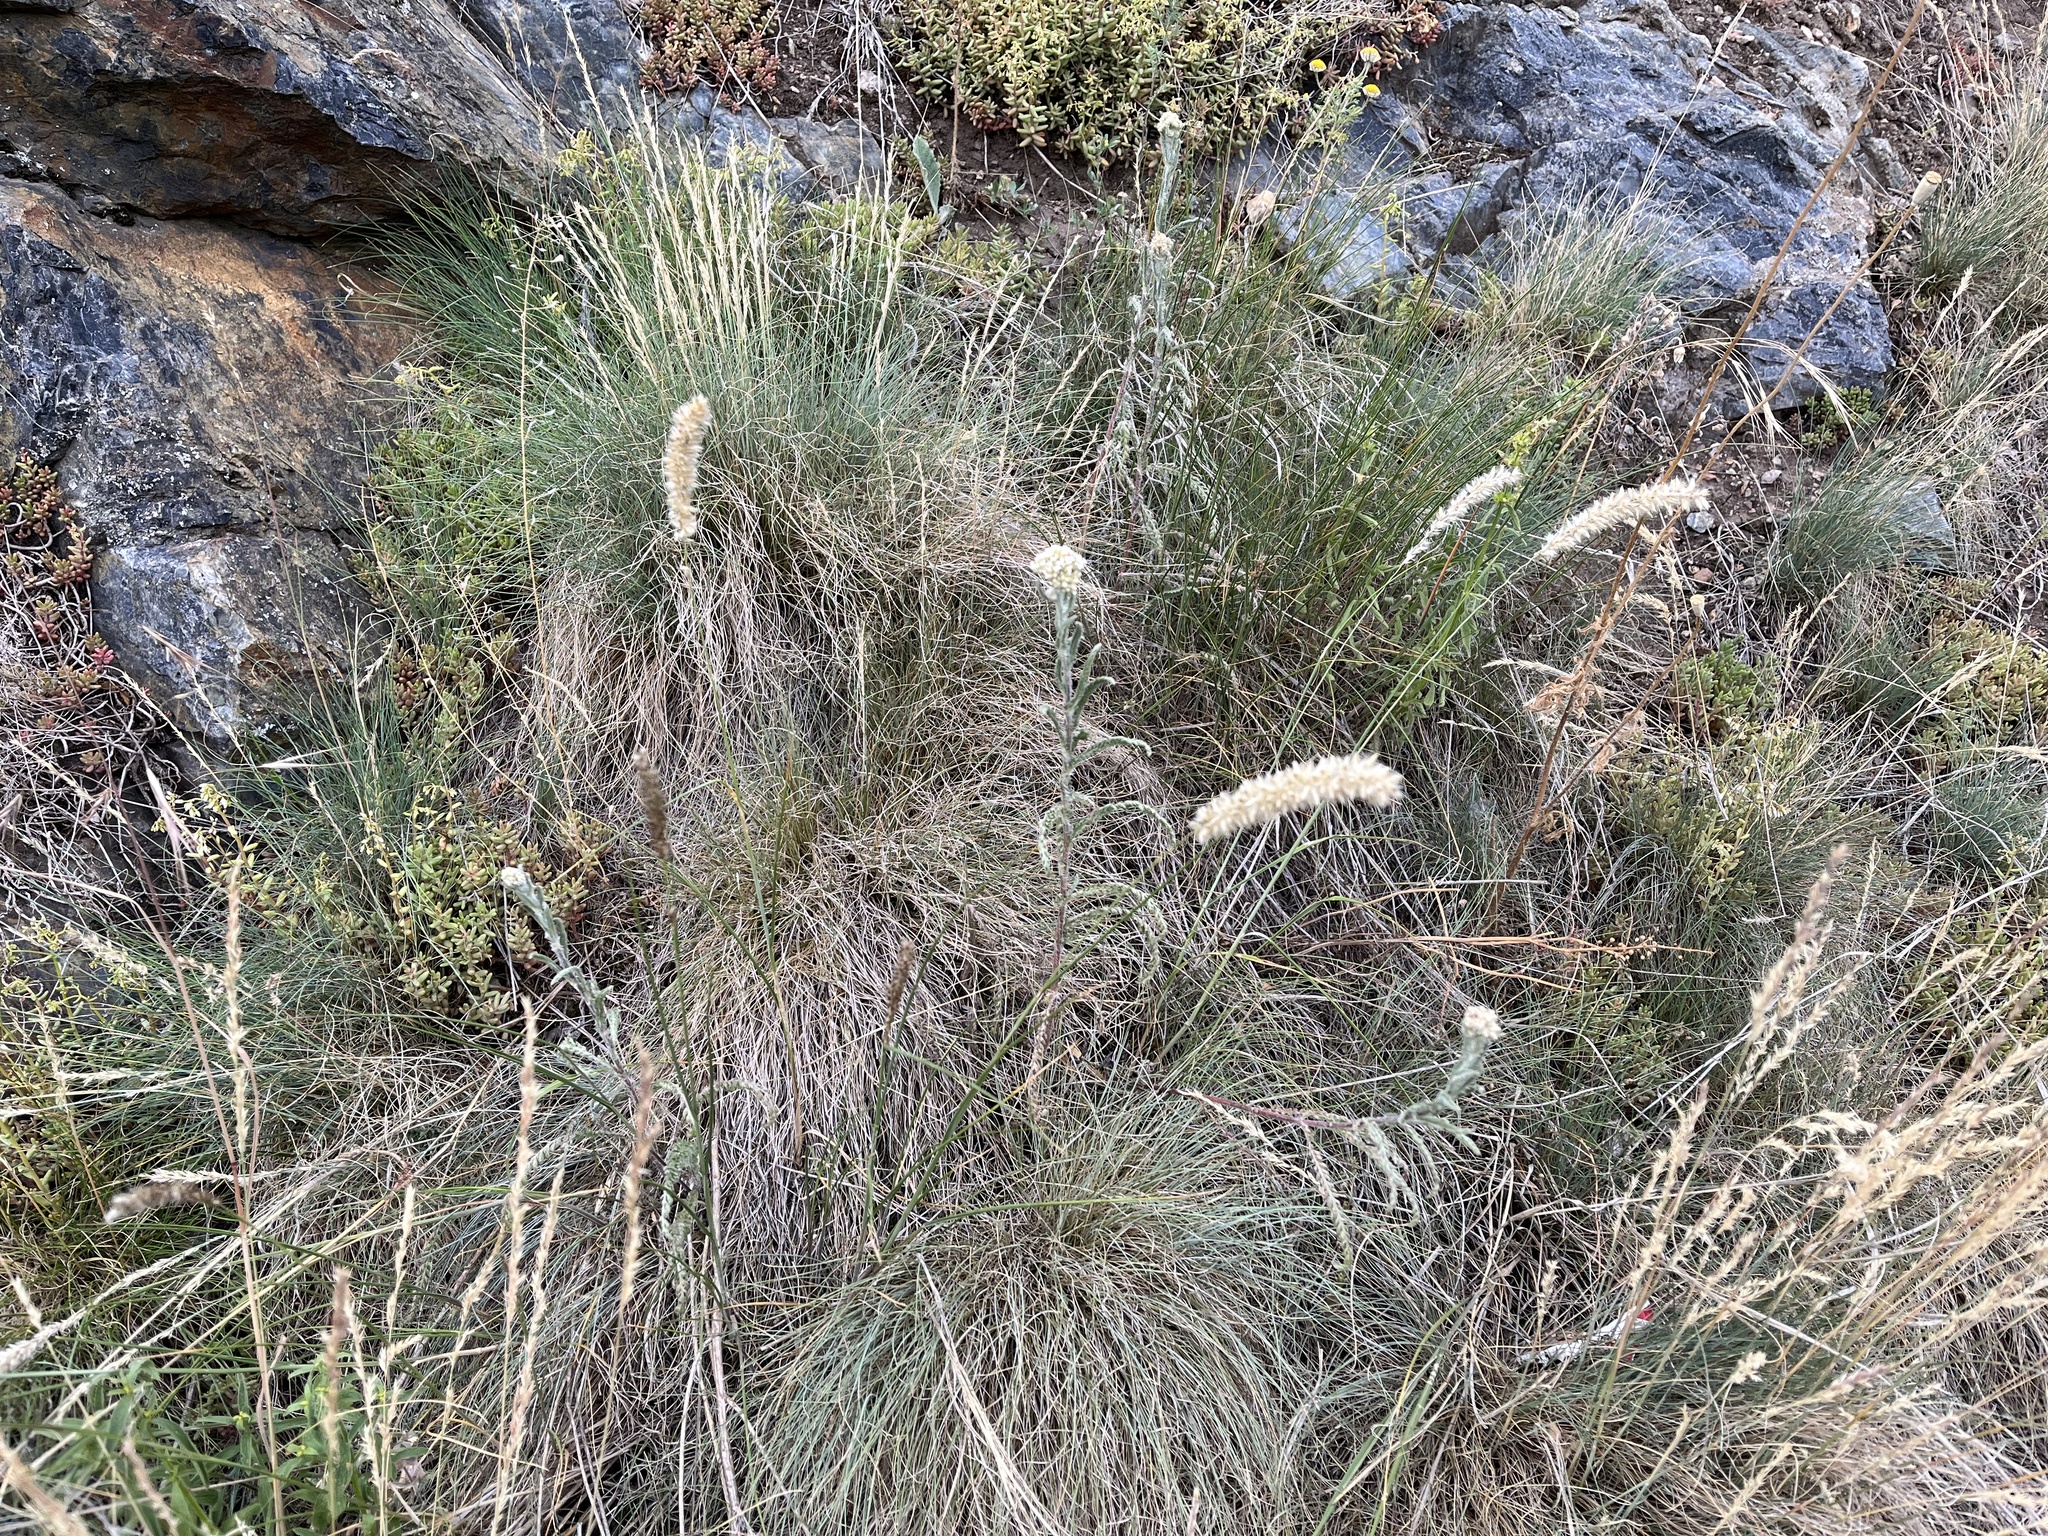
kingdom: Plantae
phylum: Tracheophyta
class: Liliopsida
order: Poales
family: Poaceae
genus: Melica
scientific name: Melica transsilvanica
